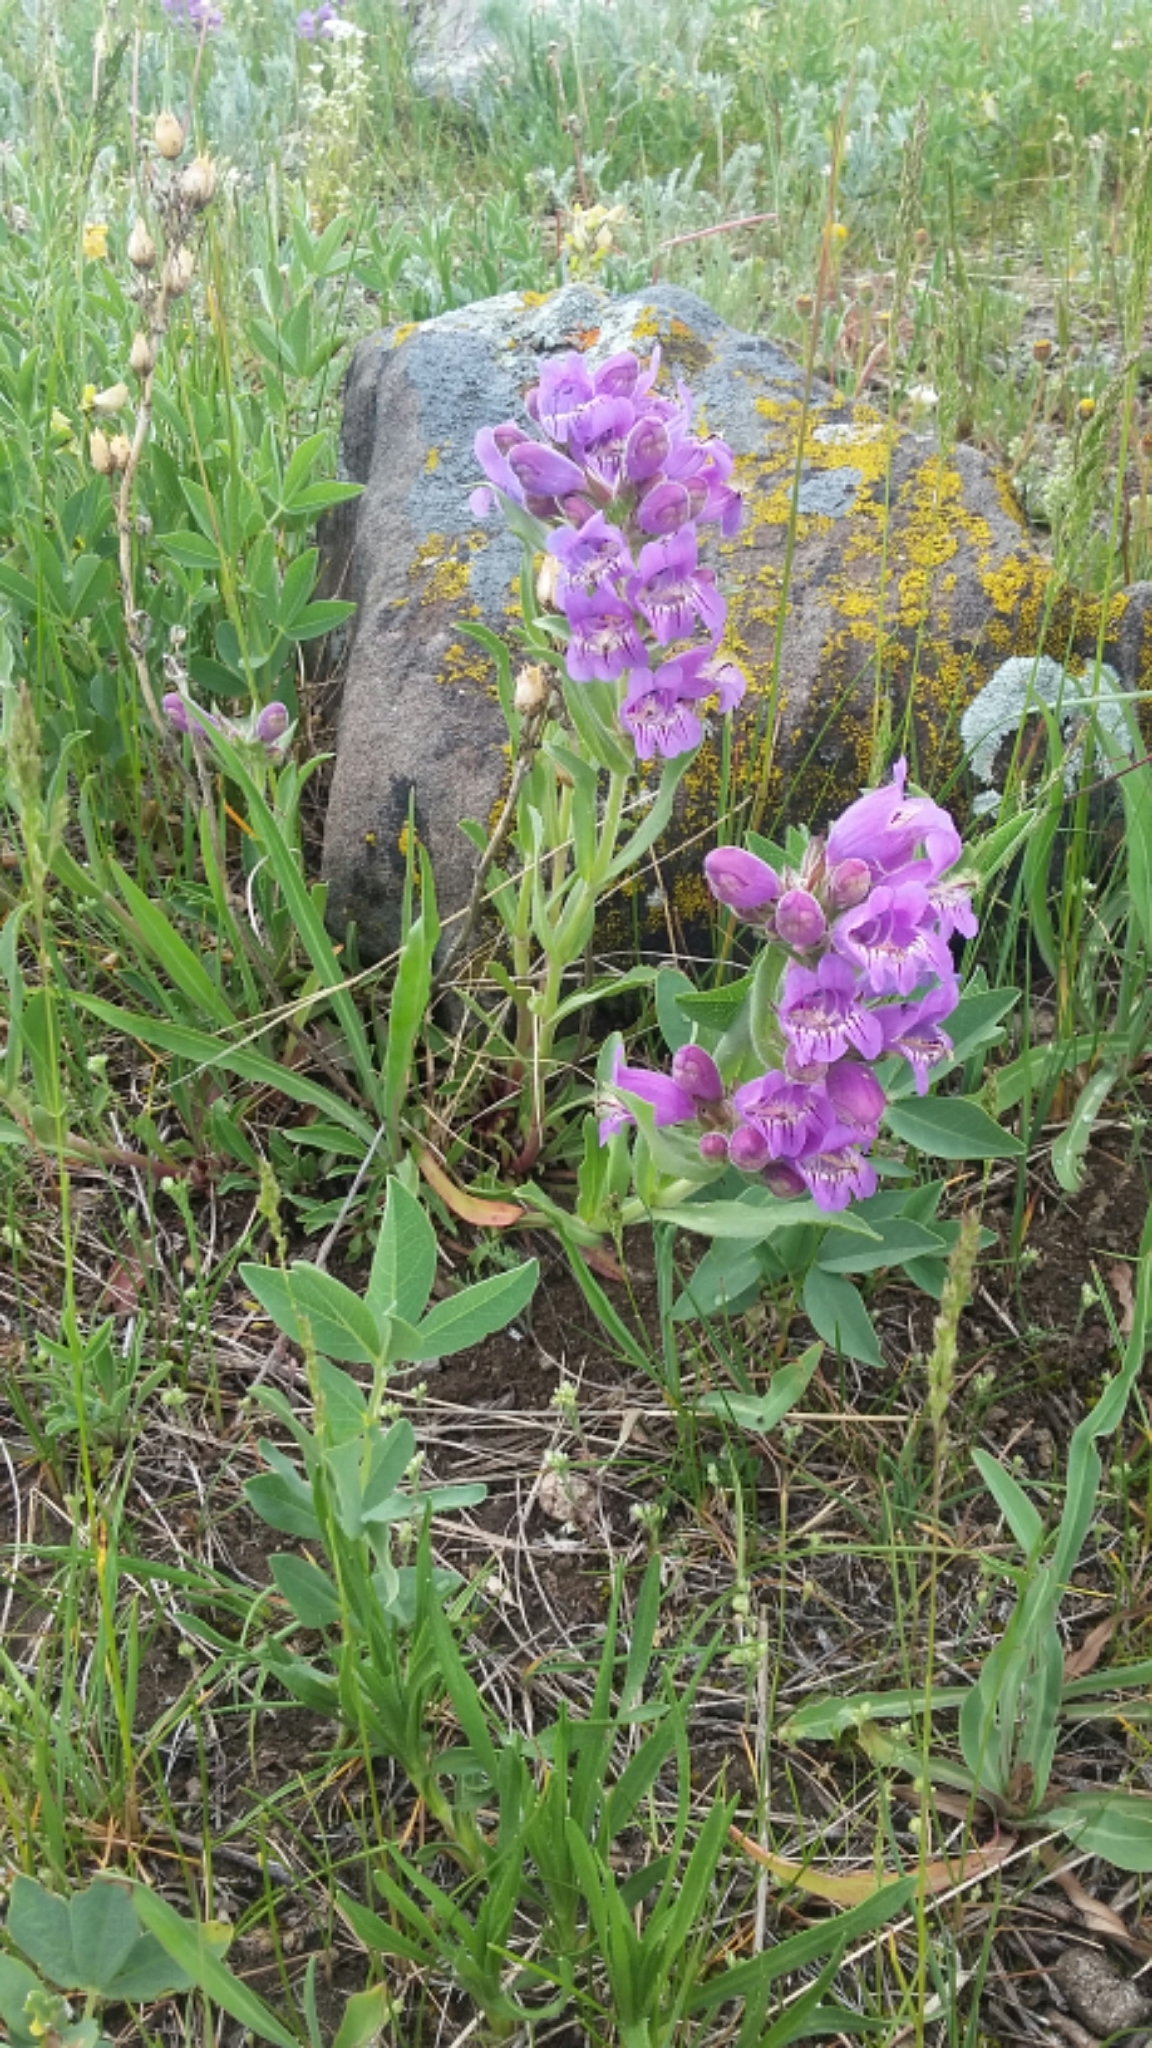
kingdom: Plantae
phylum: Tracheophyta
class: Magnoliopsida
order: Lamiales
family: Plantaginaceae
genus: Penstemon
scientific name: Penstemon eriantherus
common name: Crested beardtongue
